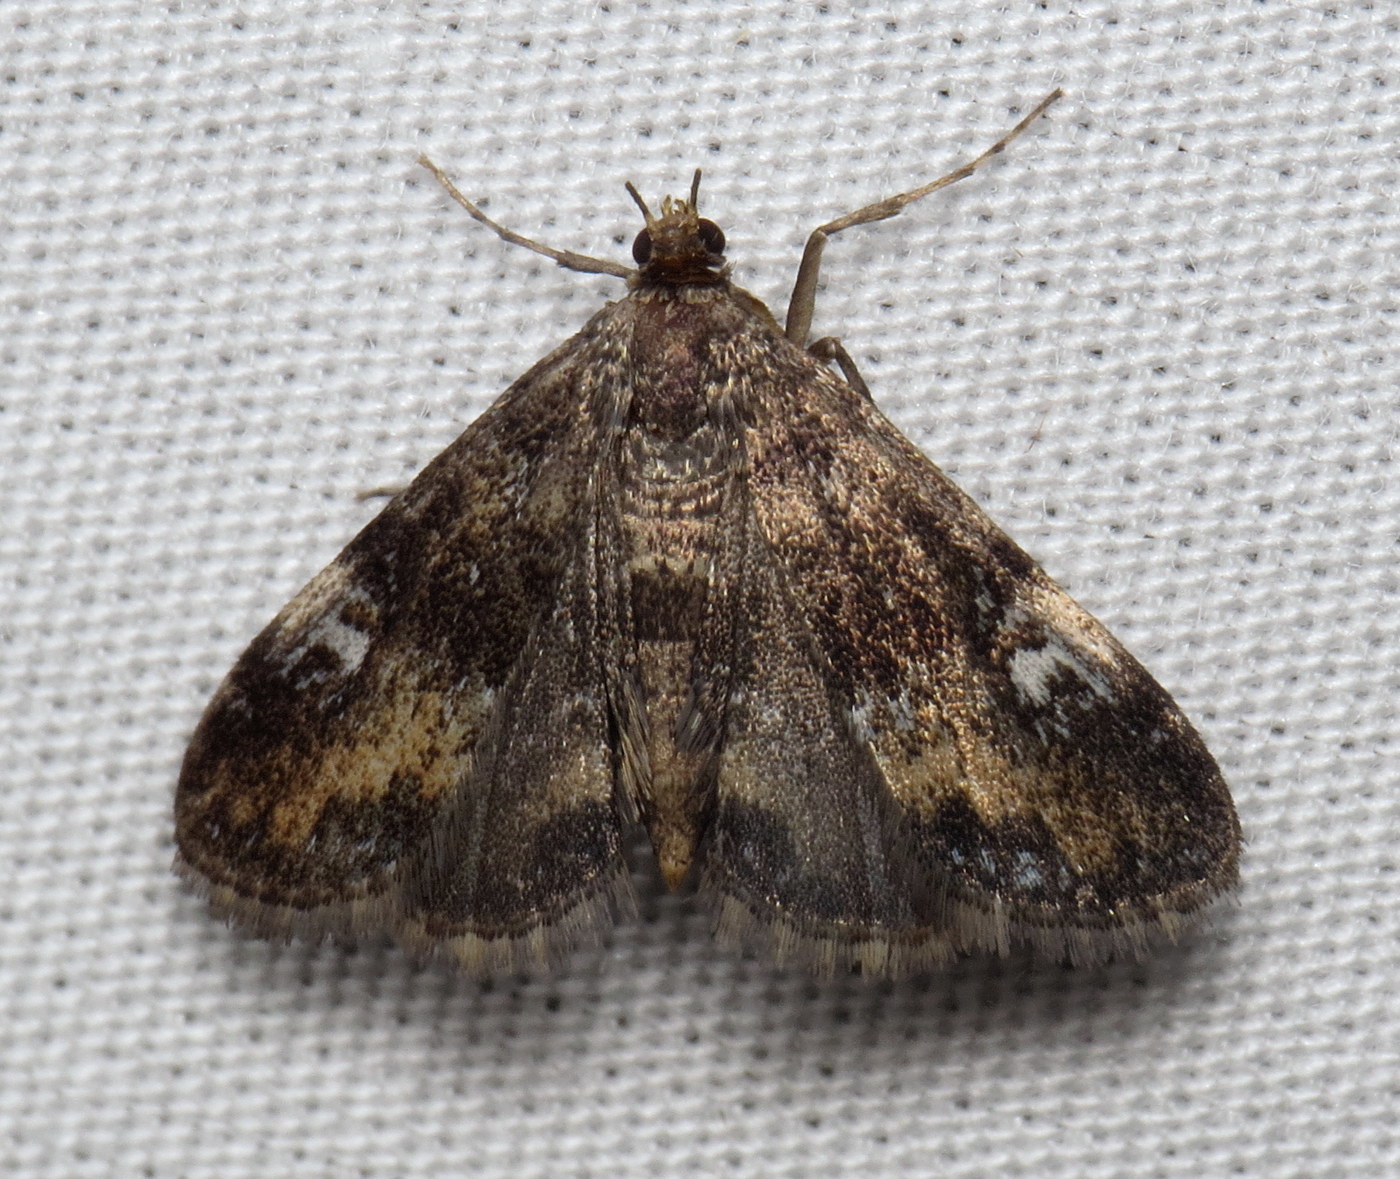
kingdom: Animalia
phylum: Arthropoda
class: Insecta
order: Lepidoptera
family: Crambidae
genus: Elophila
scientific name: Elophila obliteralis
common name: Waterlily leafcutter moth
